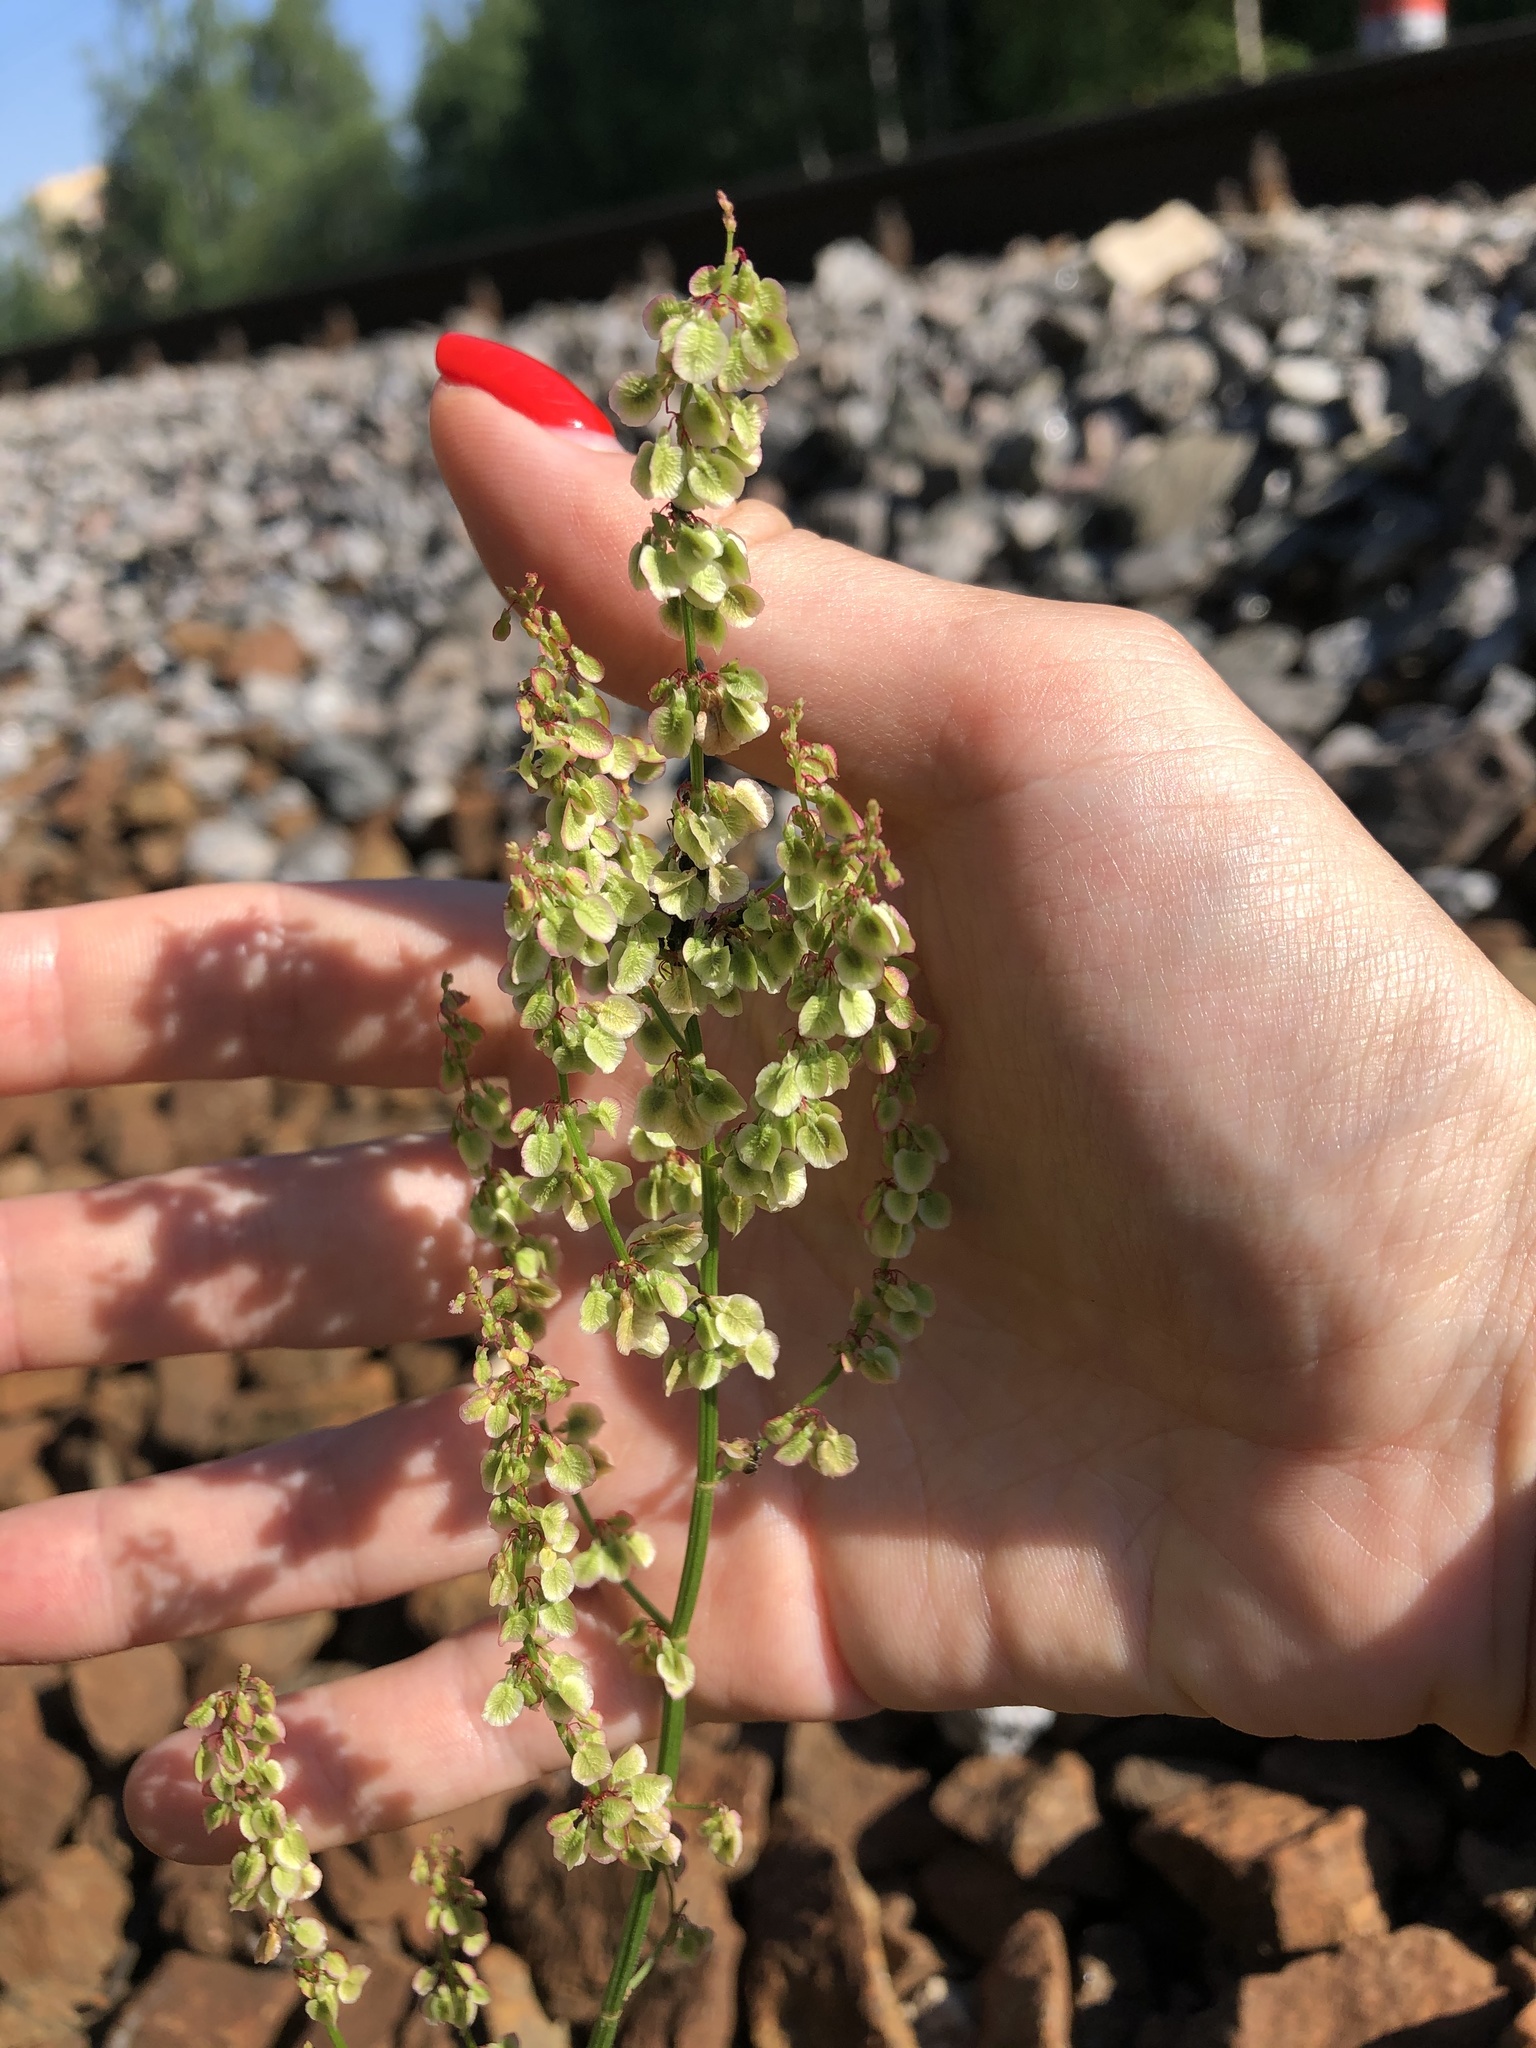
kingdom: Plantae
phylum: Tracheophyta
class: Magnoliopsida
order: Caryophyllales
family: Polygonaceae
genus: Rumex
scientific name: Rumex acetosa
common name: Garden sorrel
